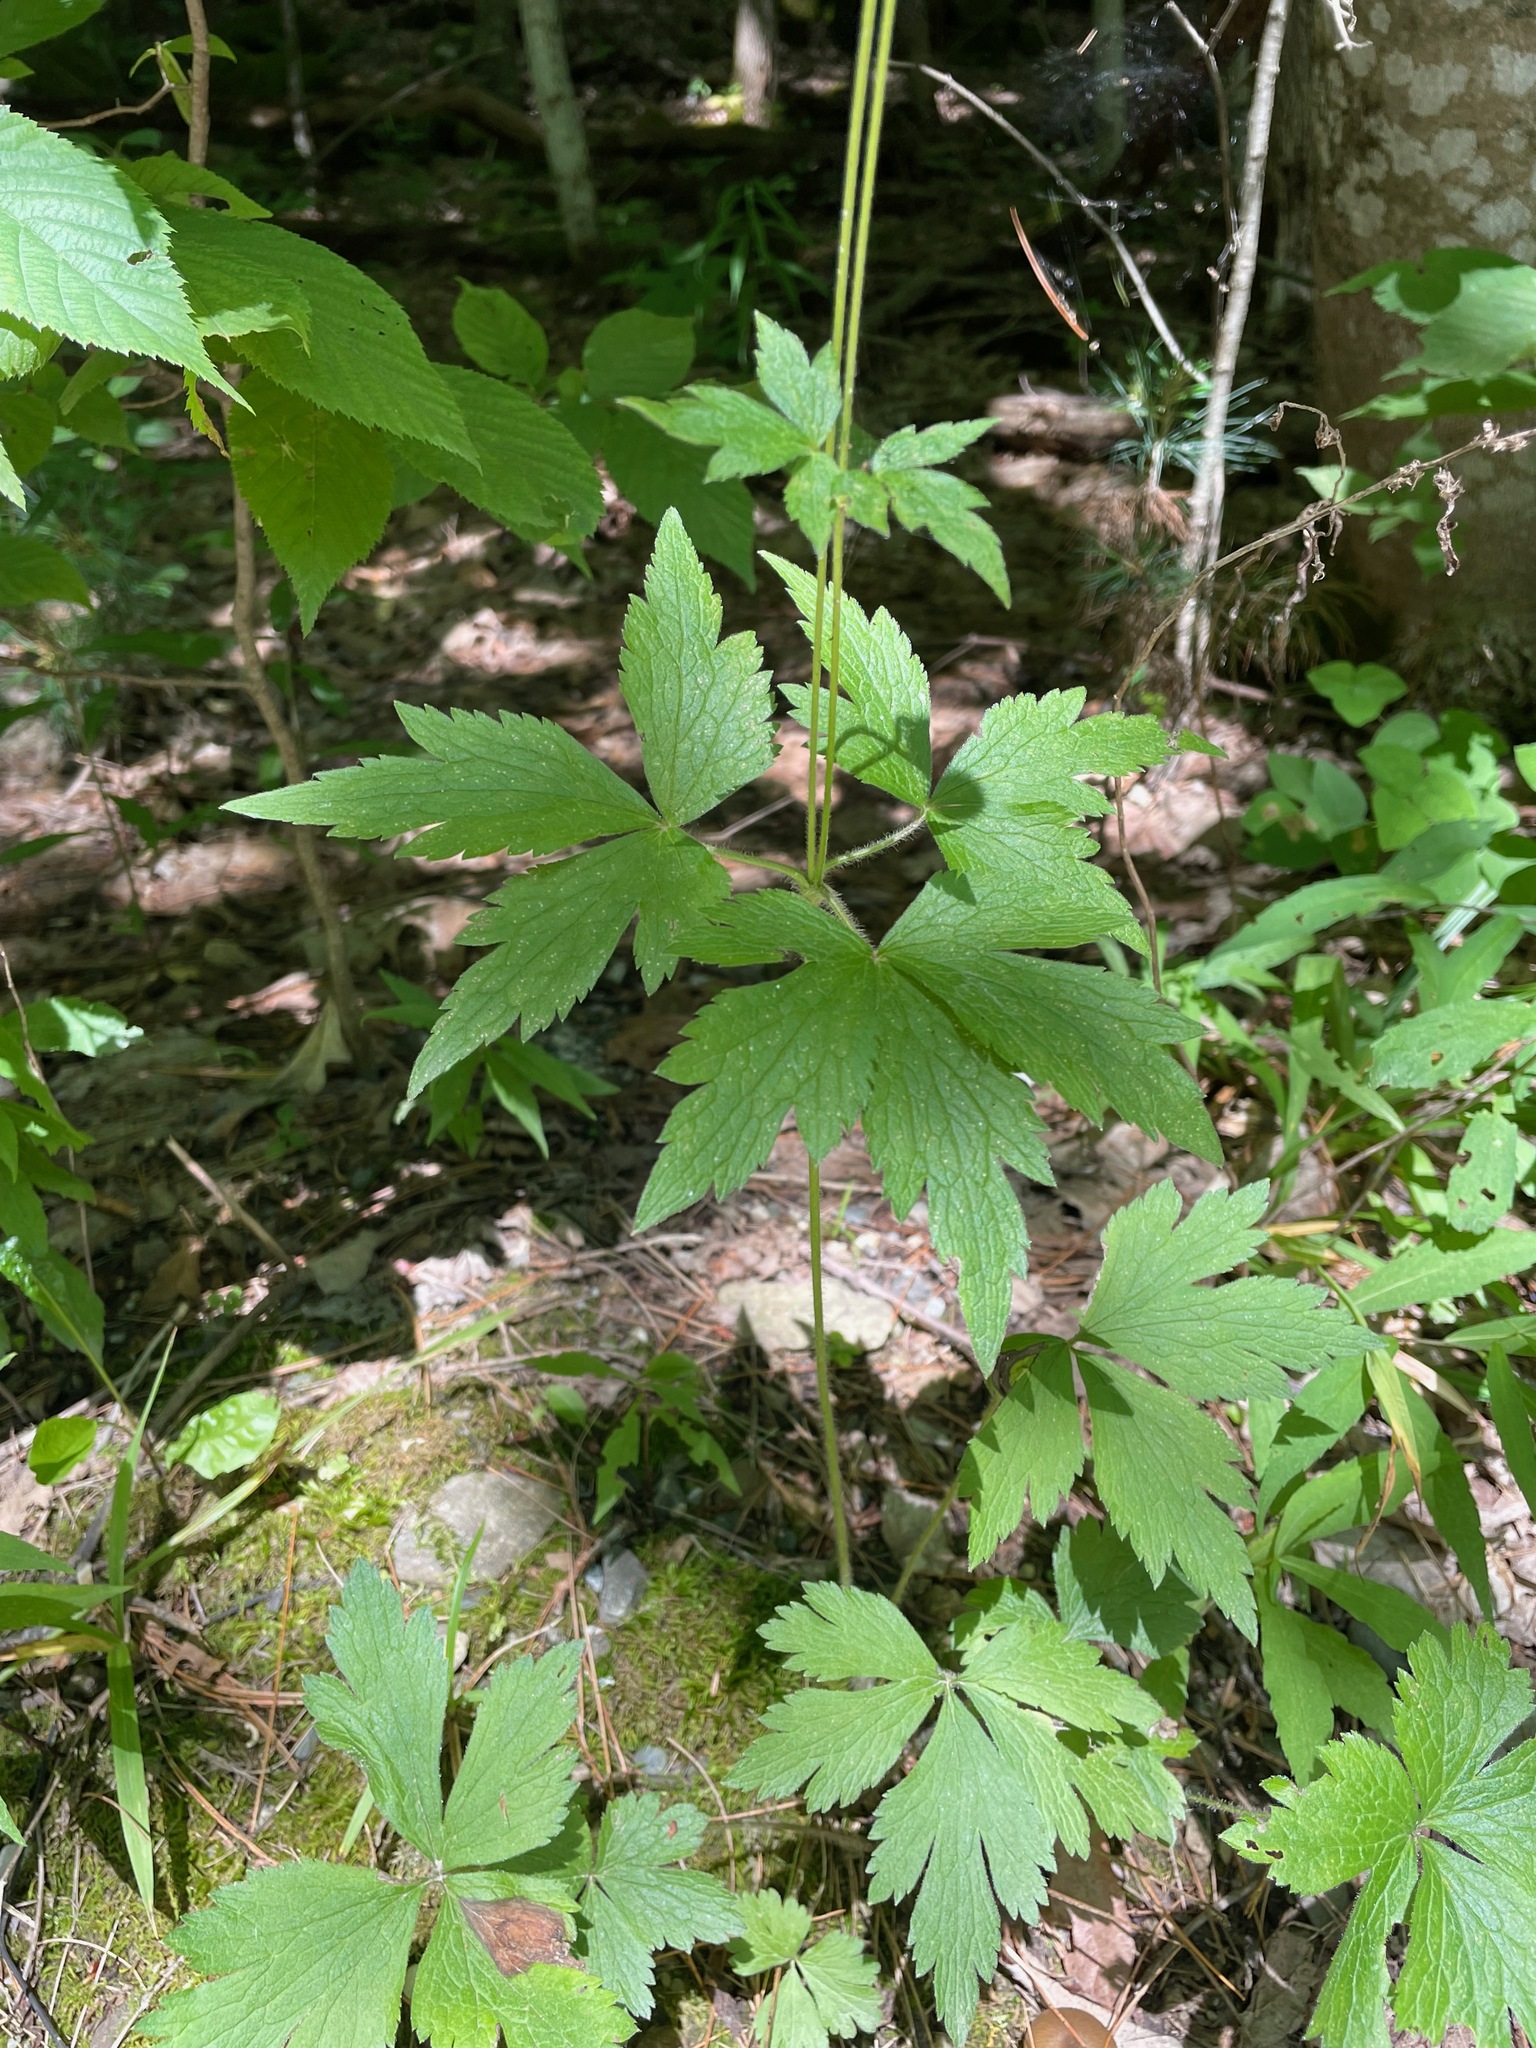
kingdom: Plantae
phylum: Tracheophyta
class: Magnoliopsida
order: Ranunculales
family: Ranunculaceae
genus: Anemone
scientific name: Anemone virginiana
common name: Tall anemone
